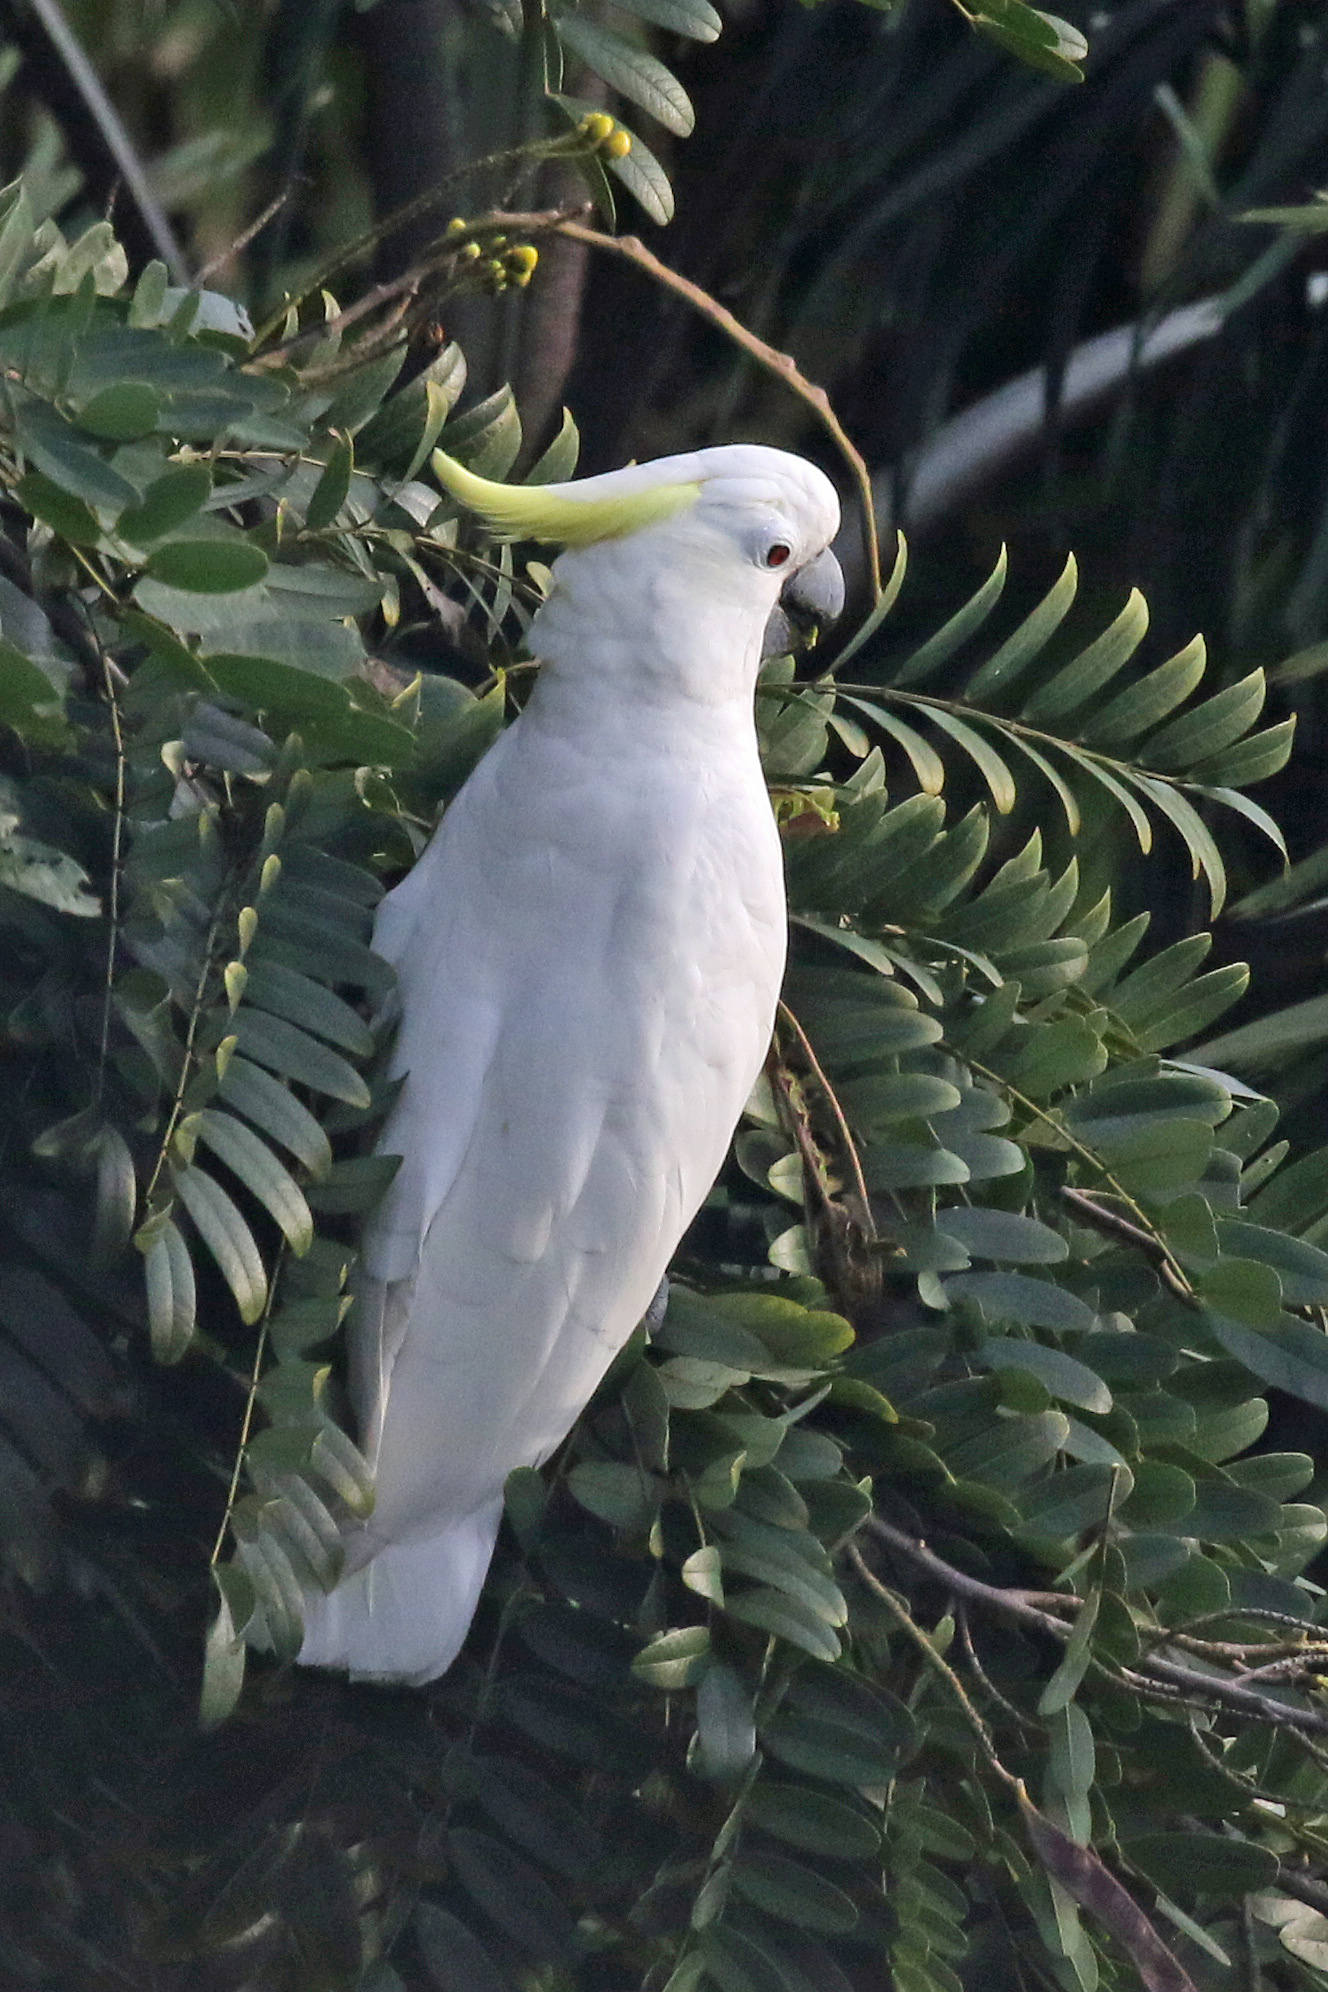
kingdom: Animalia
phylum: Chordata
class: Aves
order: Psittaciformes
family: Psittacidae
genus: Cacatua
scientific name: Cacatua sulphurea
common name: Yellow-crested cockatoo
